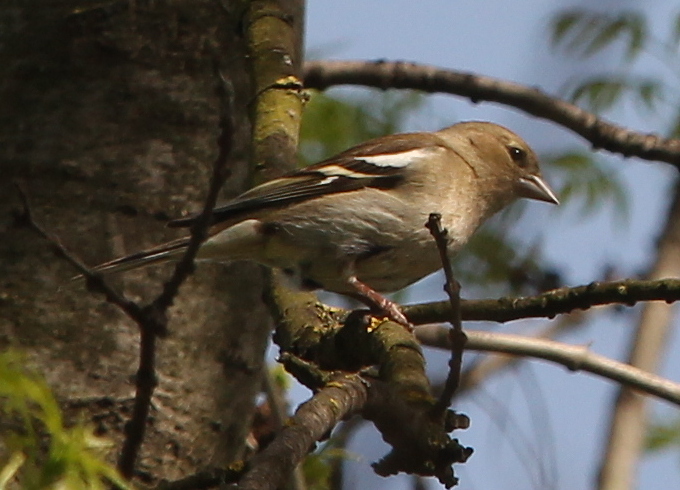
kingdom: Animalia
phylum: Chordata
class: Aves
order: Passeriformes
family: Fringillidae
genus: Fringilla
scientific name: Fringilla coelebs
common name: Common chaffinch
